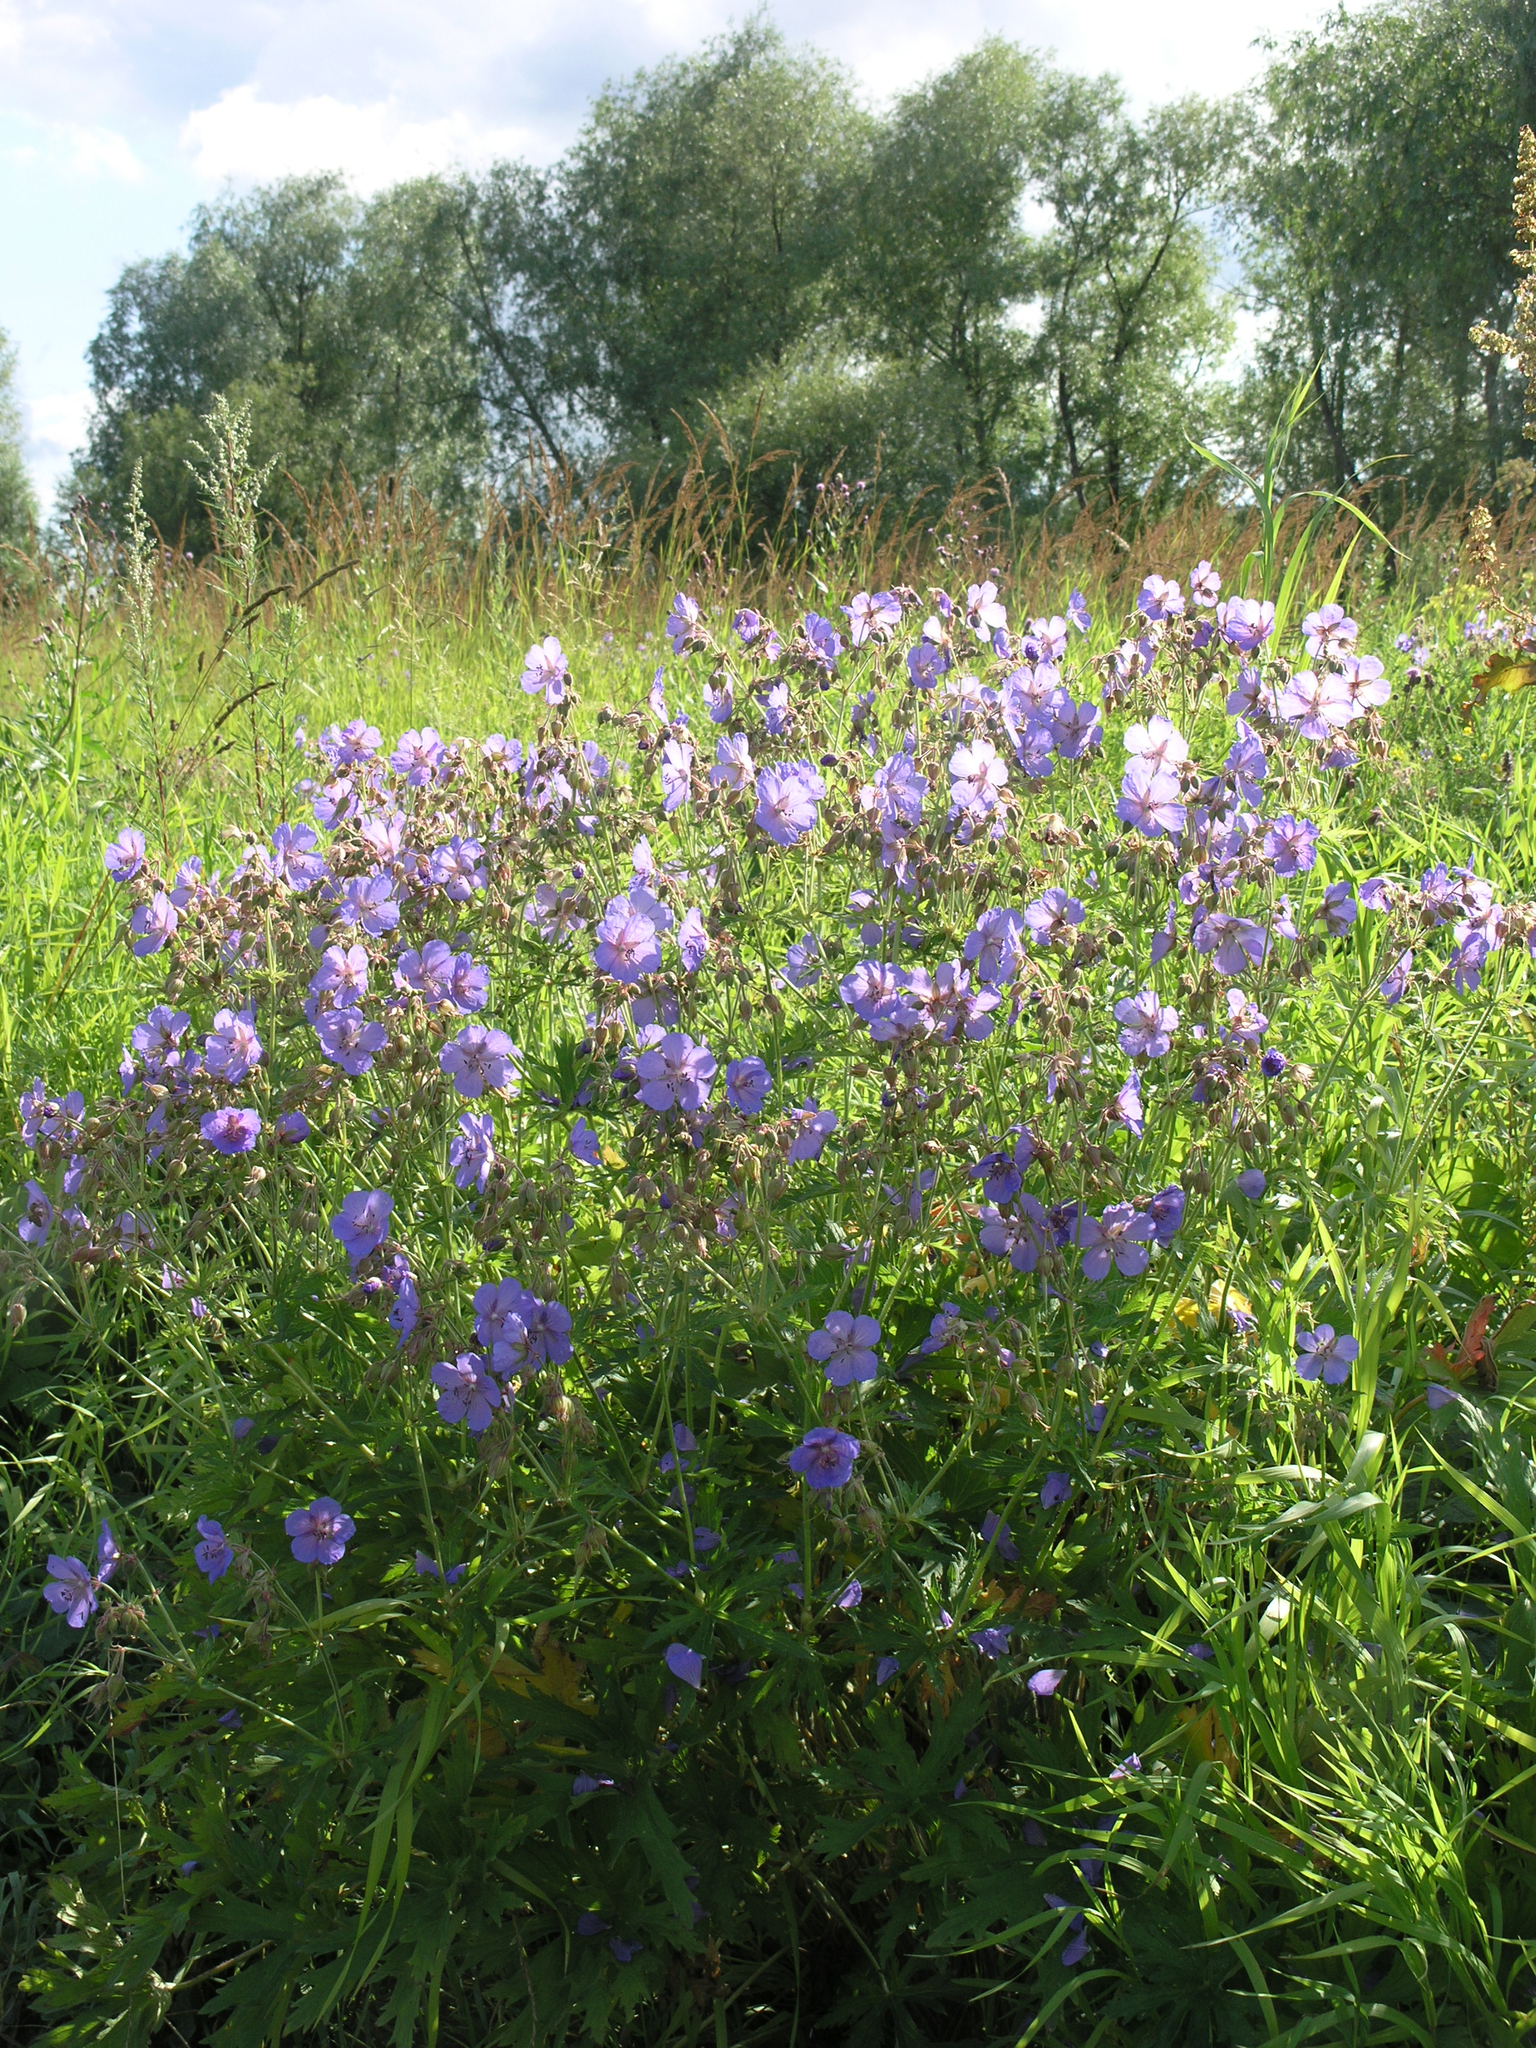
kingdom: Plantae
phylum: Tracheophyta
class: Magnoliopsida
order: Geraniales
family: Geraniaceae
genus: Geranium
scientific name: Geranium pratense
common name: Meadow crane's-bill
